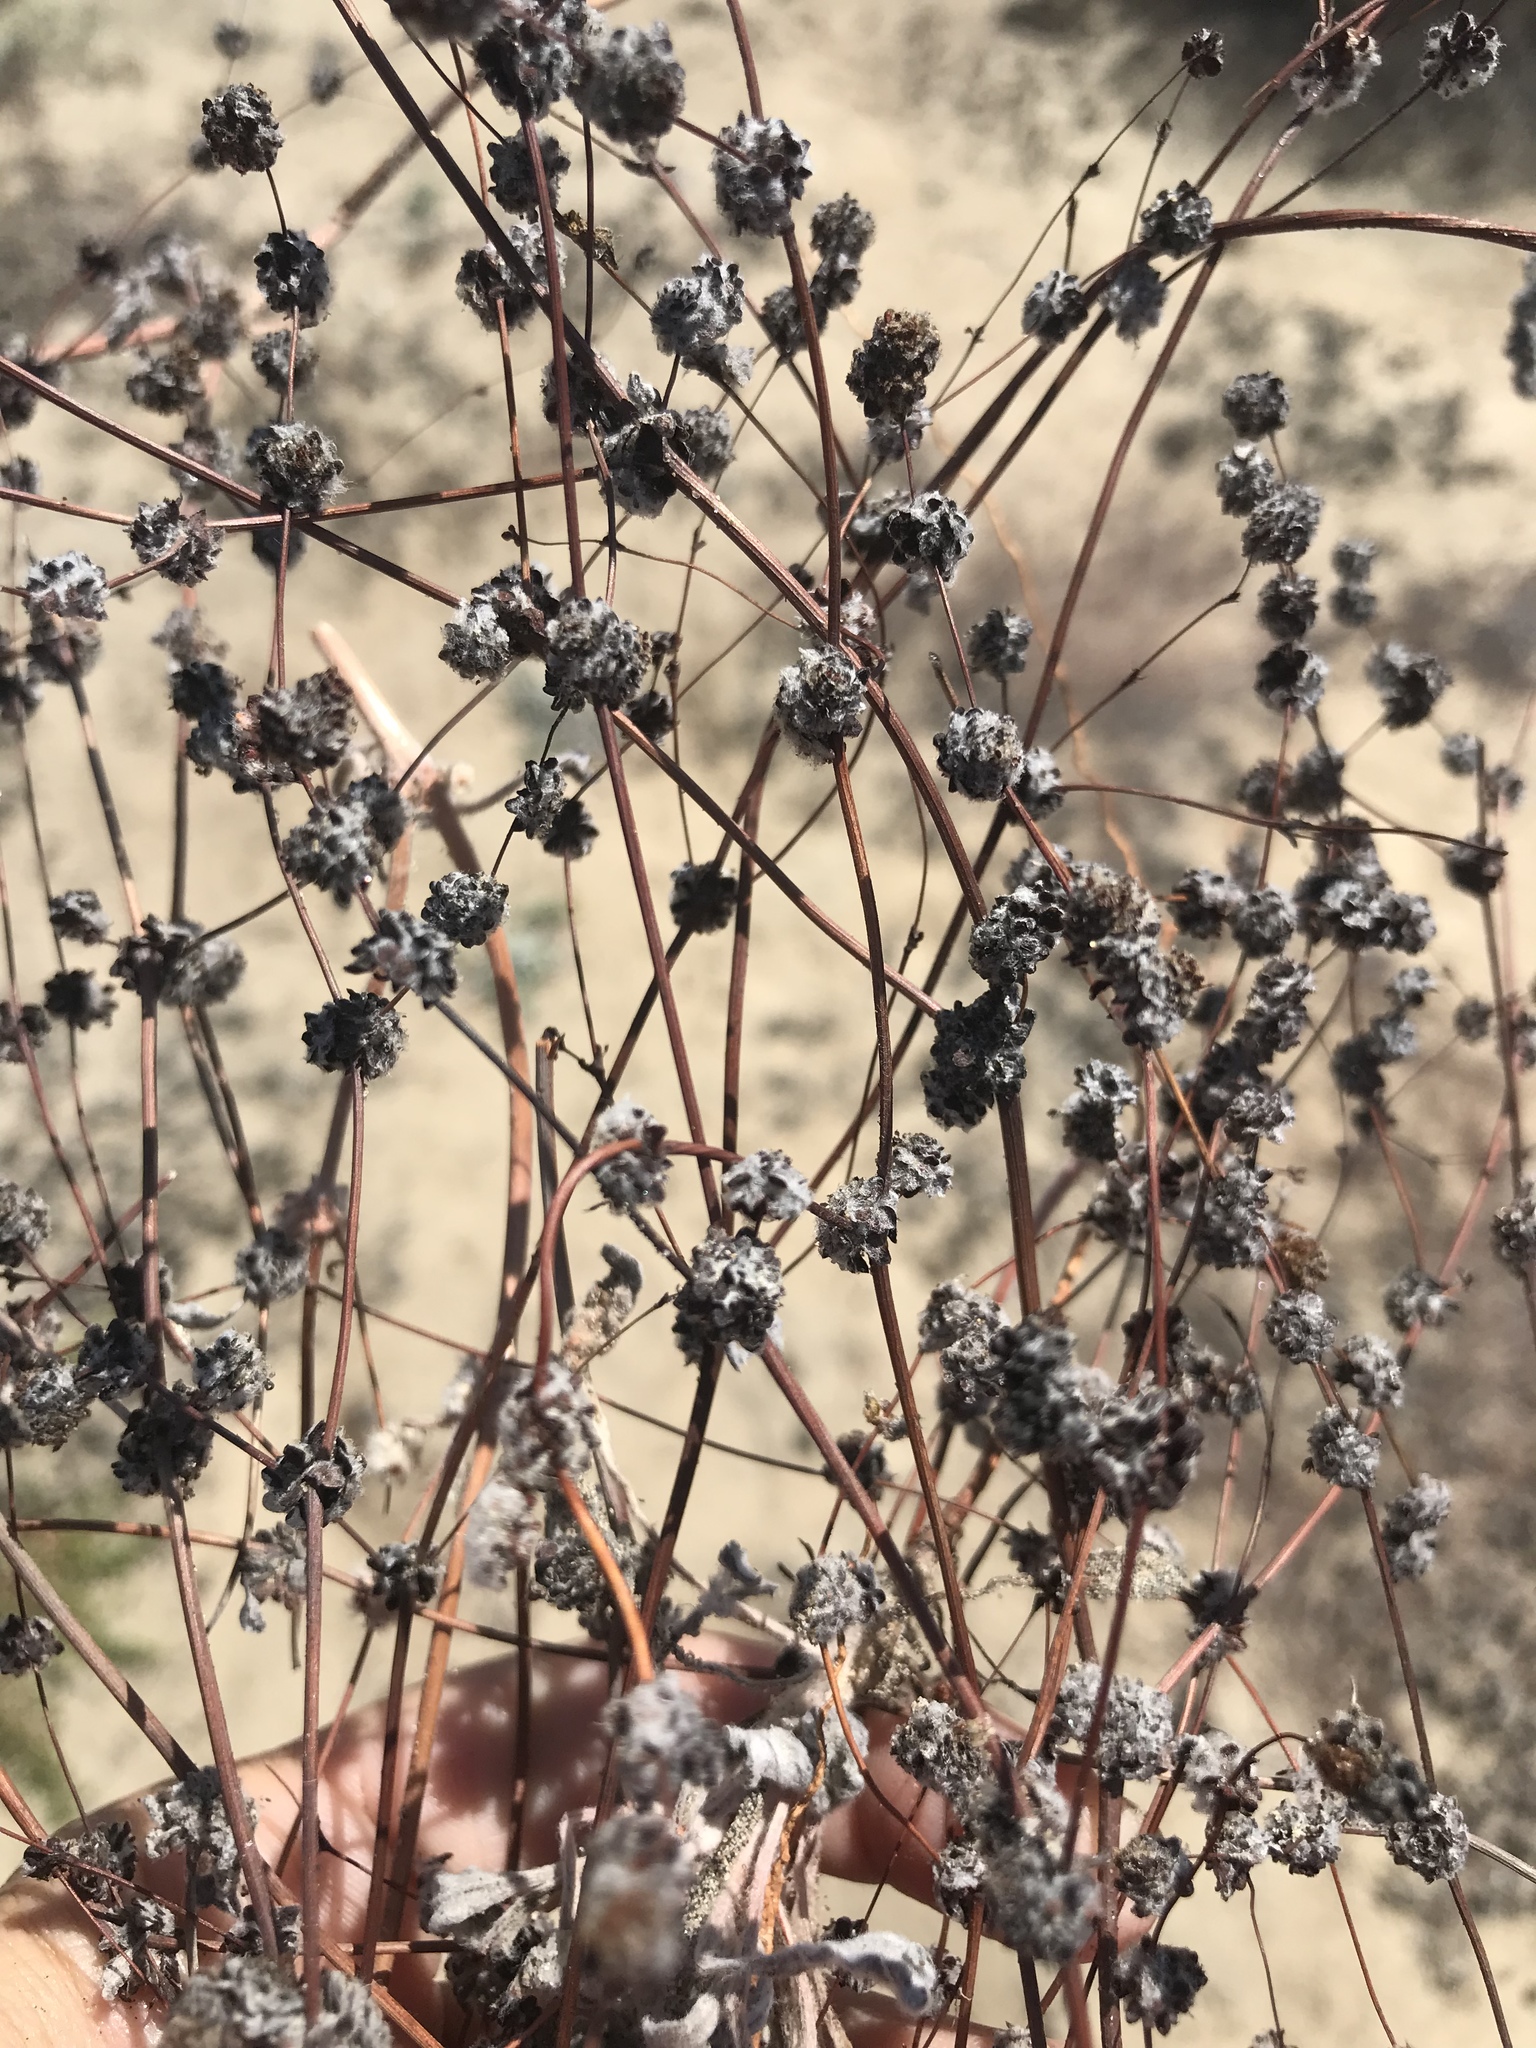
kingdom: Plantae
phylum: Tracheophyta
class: Magnoliopsida
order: Caryophyllales
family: Polygonaceae
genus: Nemacaulis
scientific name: Nemacaulis denudata
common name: Woolly-heads
